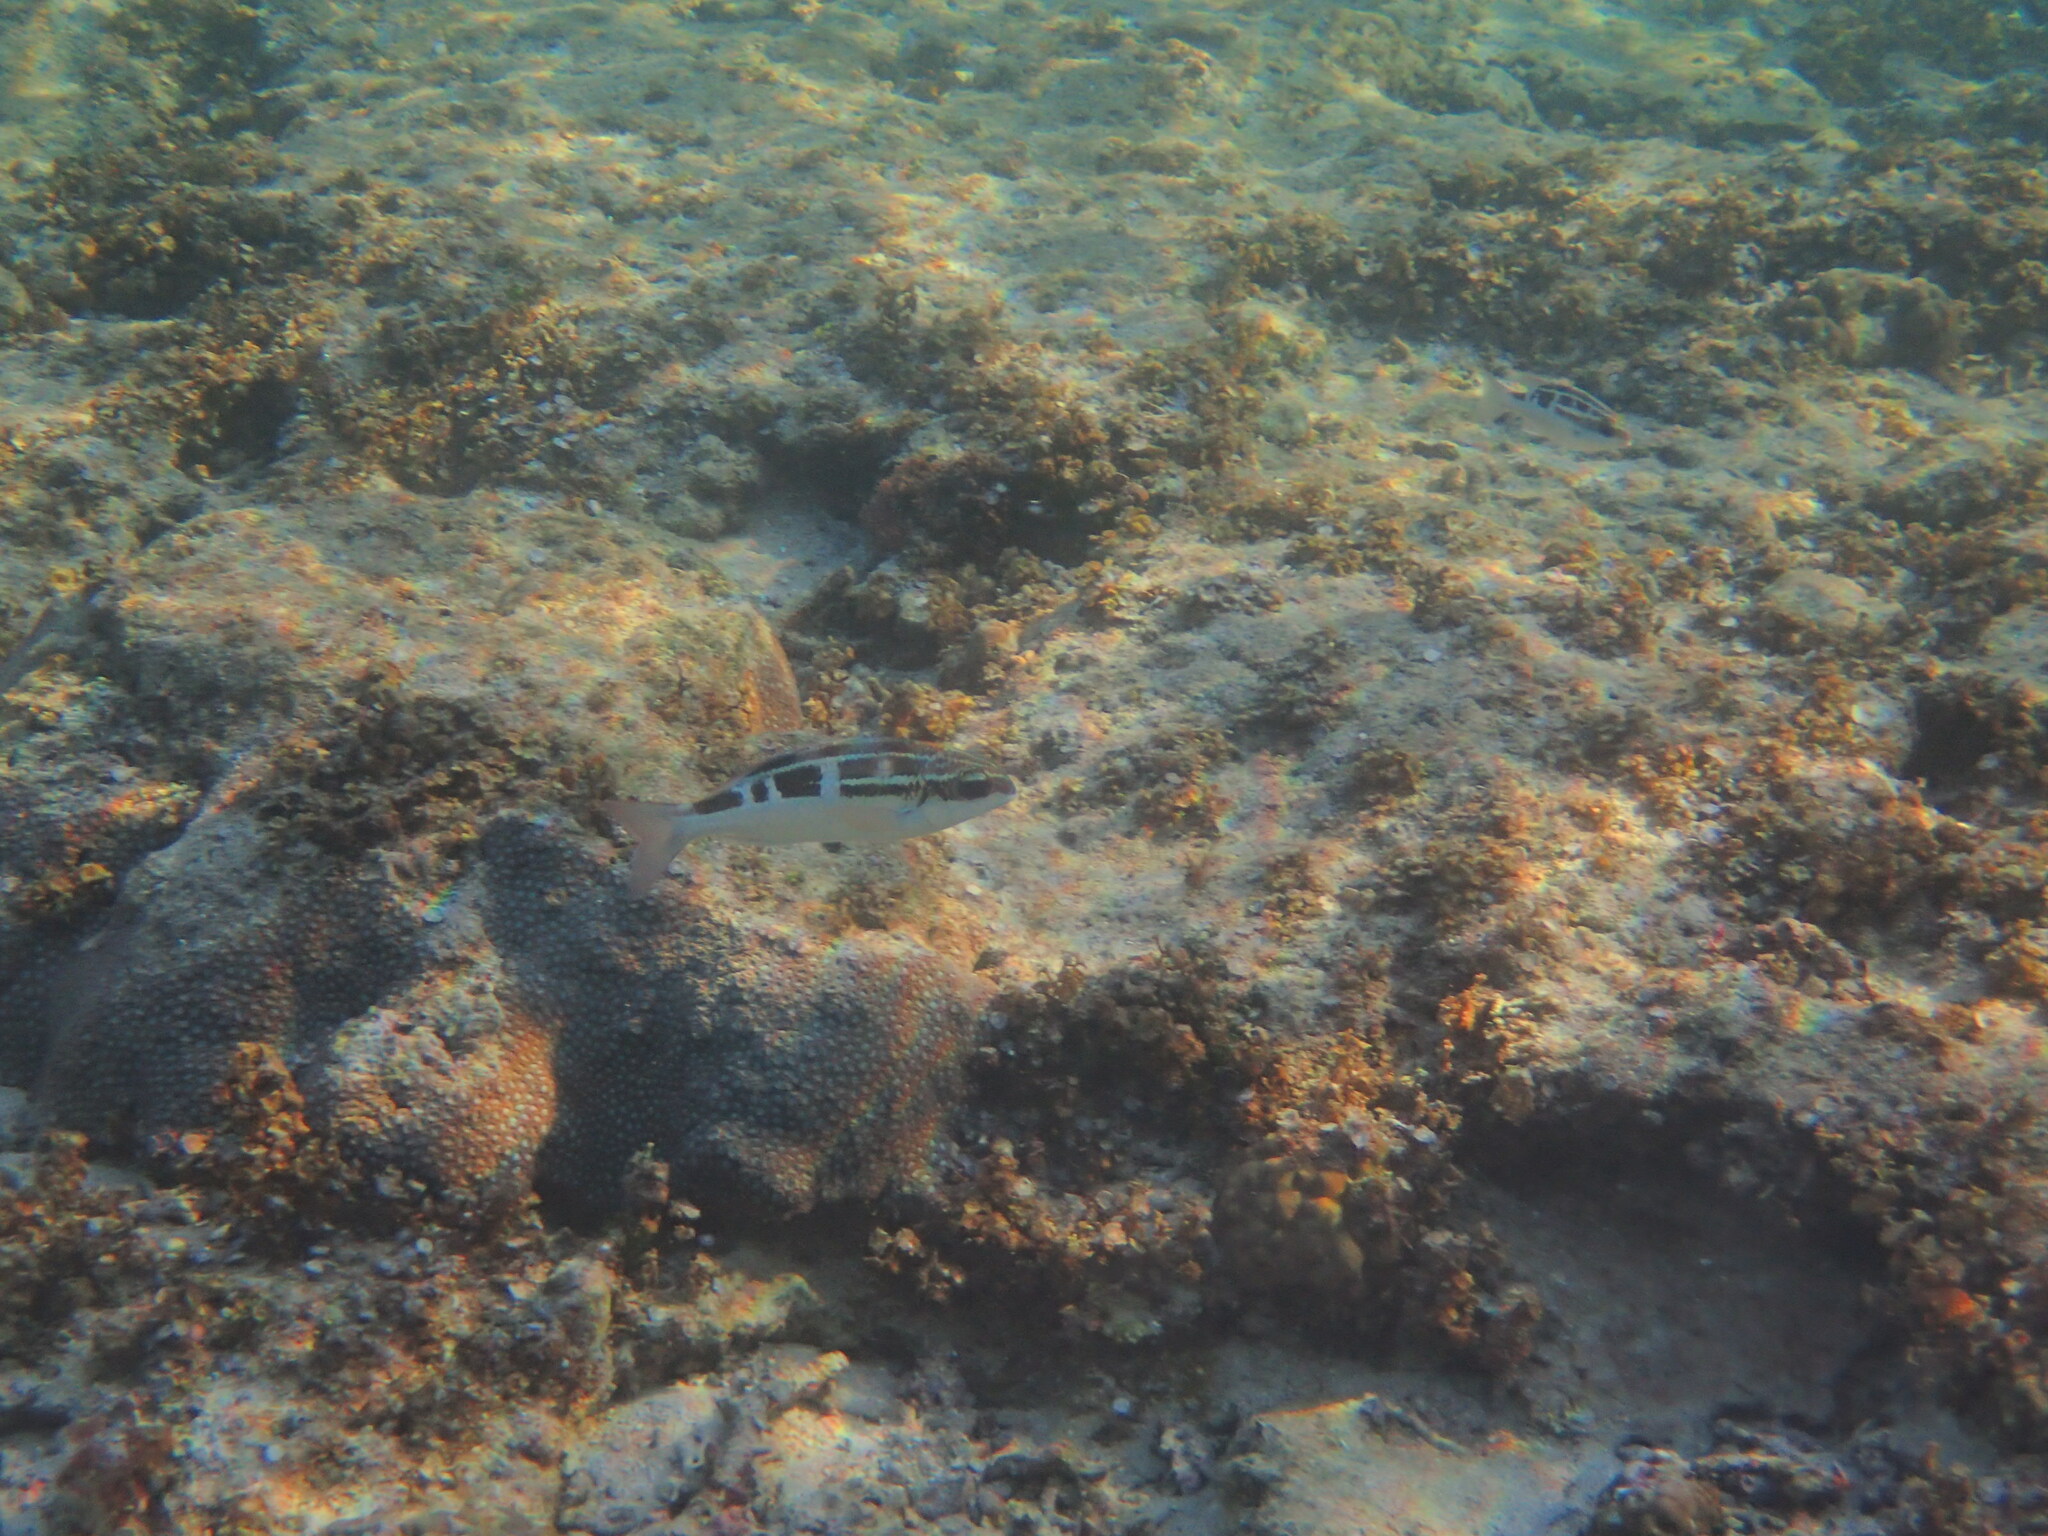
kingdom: Animalia
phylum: Chordata
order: Perciformes
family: Nemipteridae
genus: Scolopsis
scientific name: Scolopsis lineata
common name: Striped monocle bream
